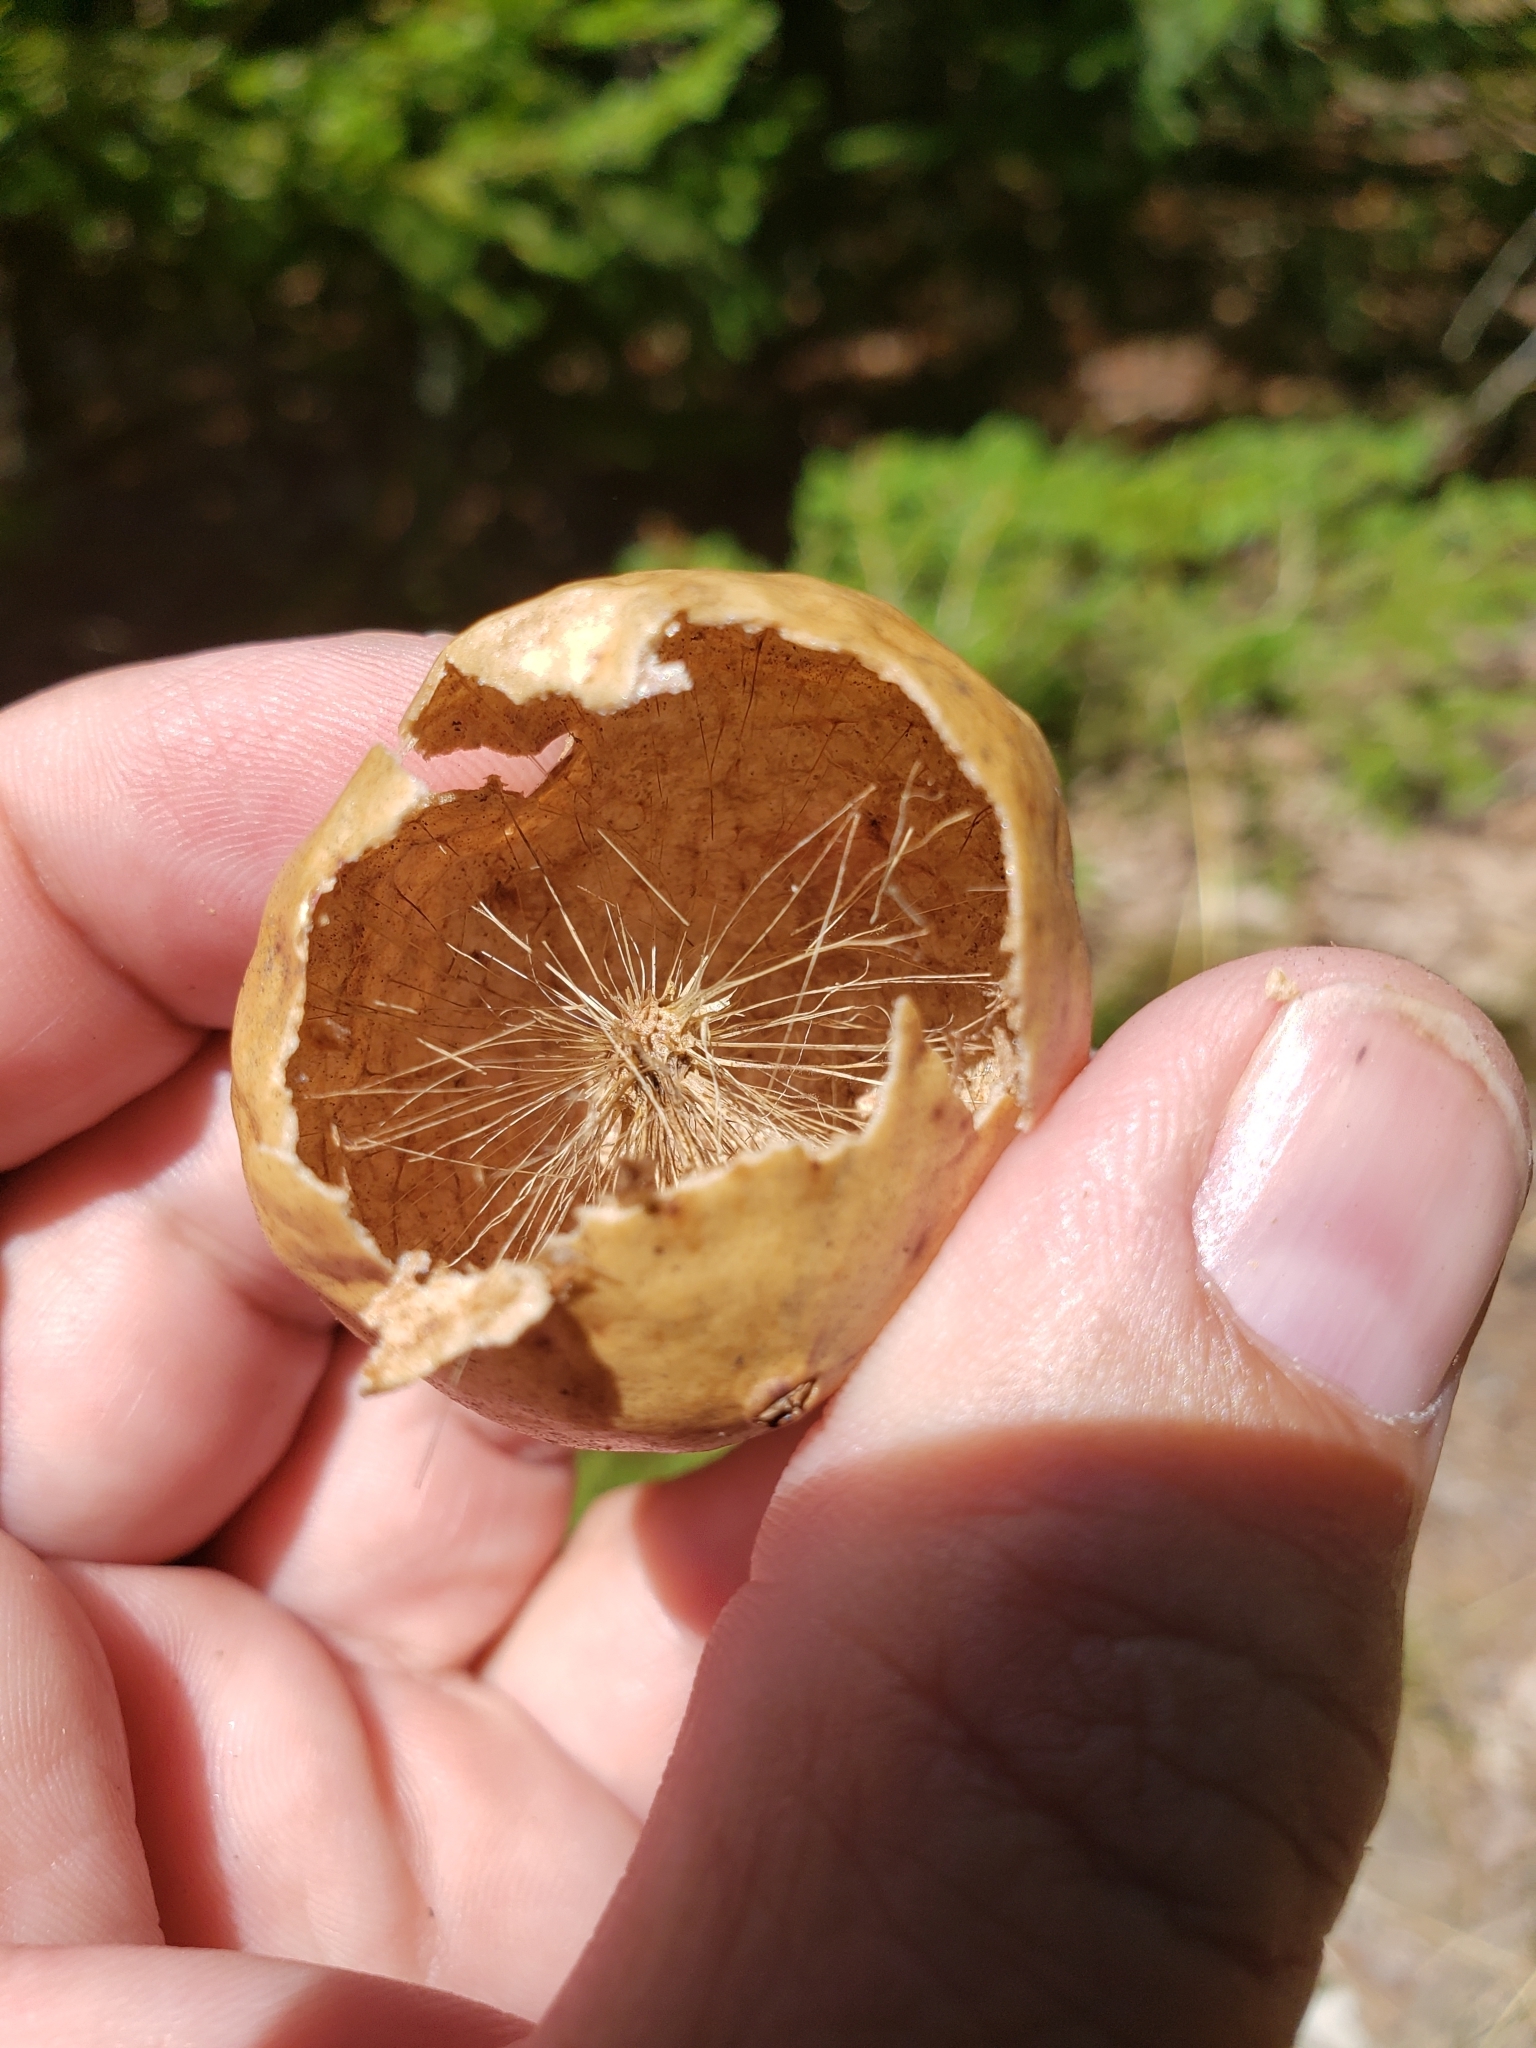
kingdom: Animalia
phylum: Arthropoda
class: Insecta
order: Hymenoptera
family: Cynipidae
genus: Amphibolips
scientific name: Amphibolips
